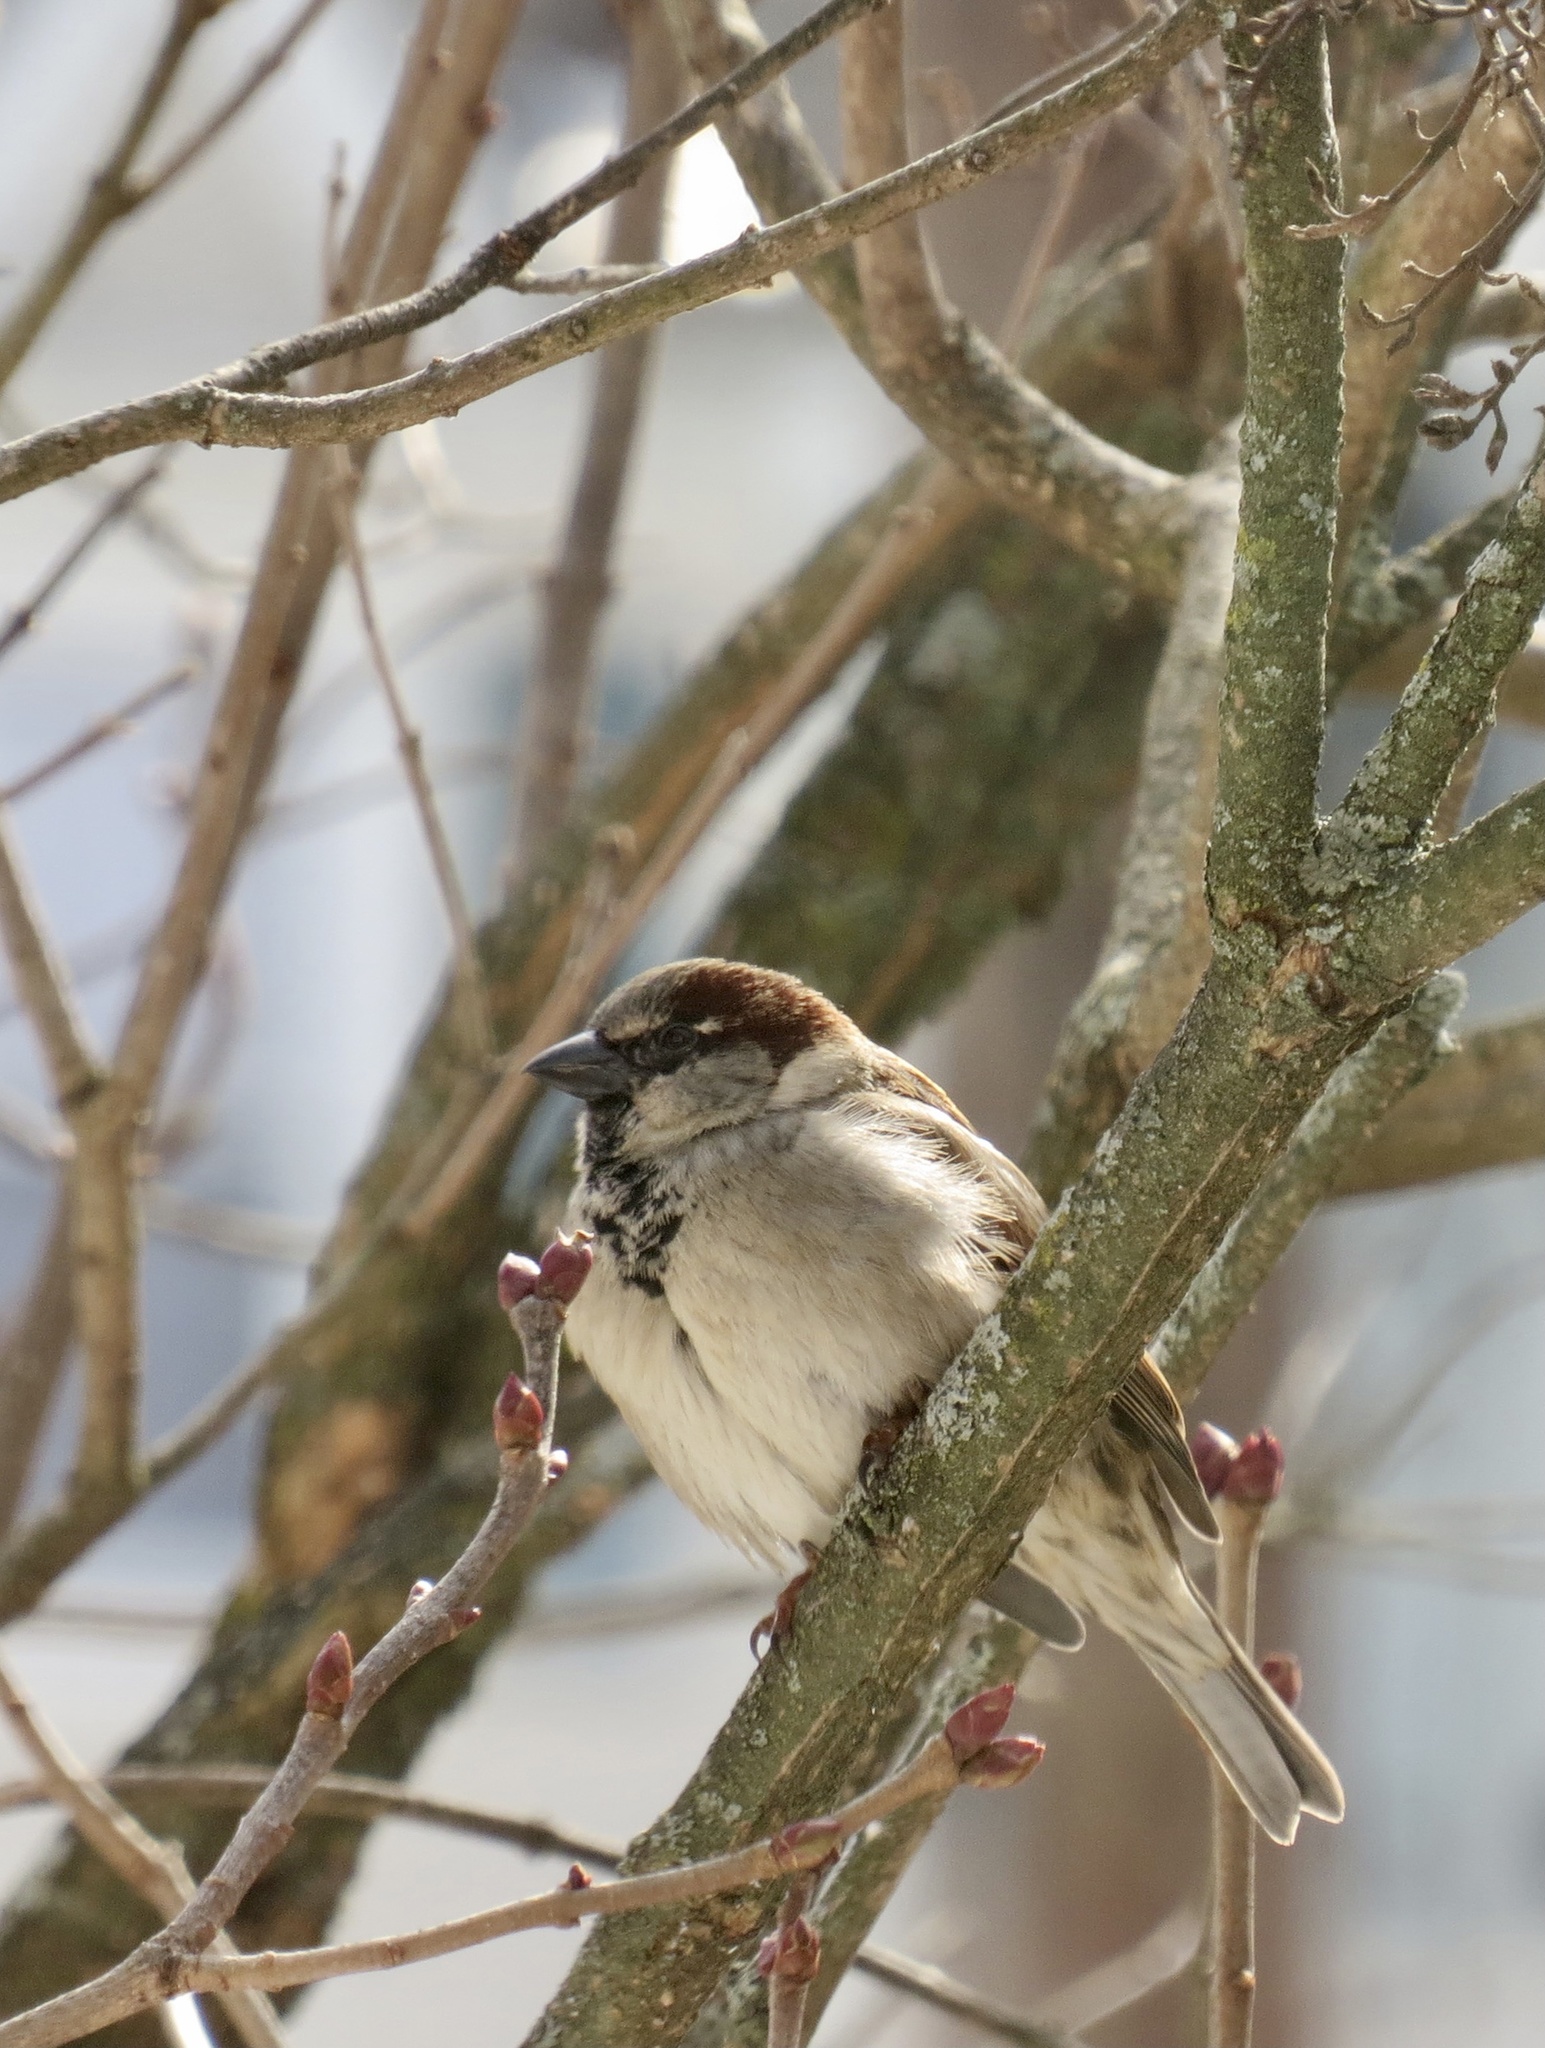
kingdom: Animalia
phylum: Chordata
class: Aves
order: Passeriformes
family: Passeridae
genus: Passer
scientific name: Passer domesticus
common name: House sparrow
